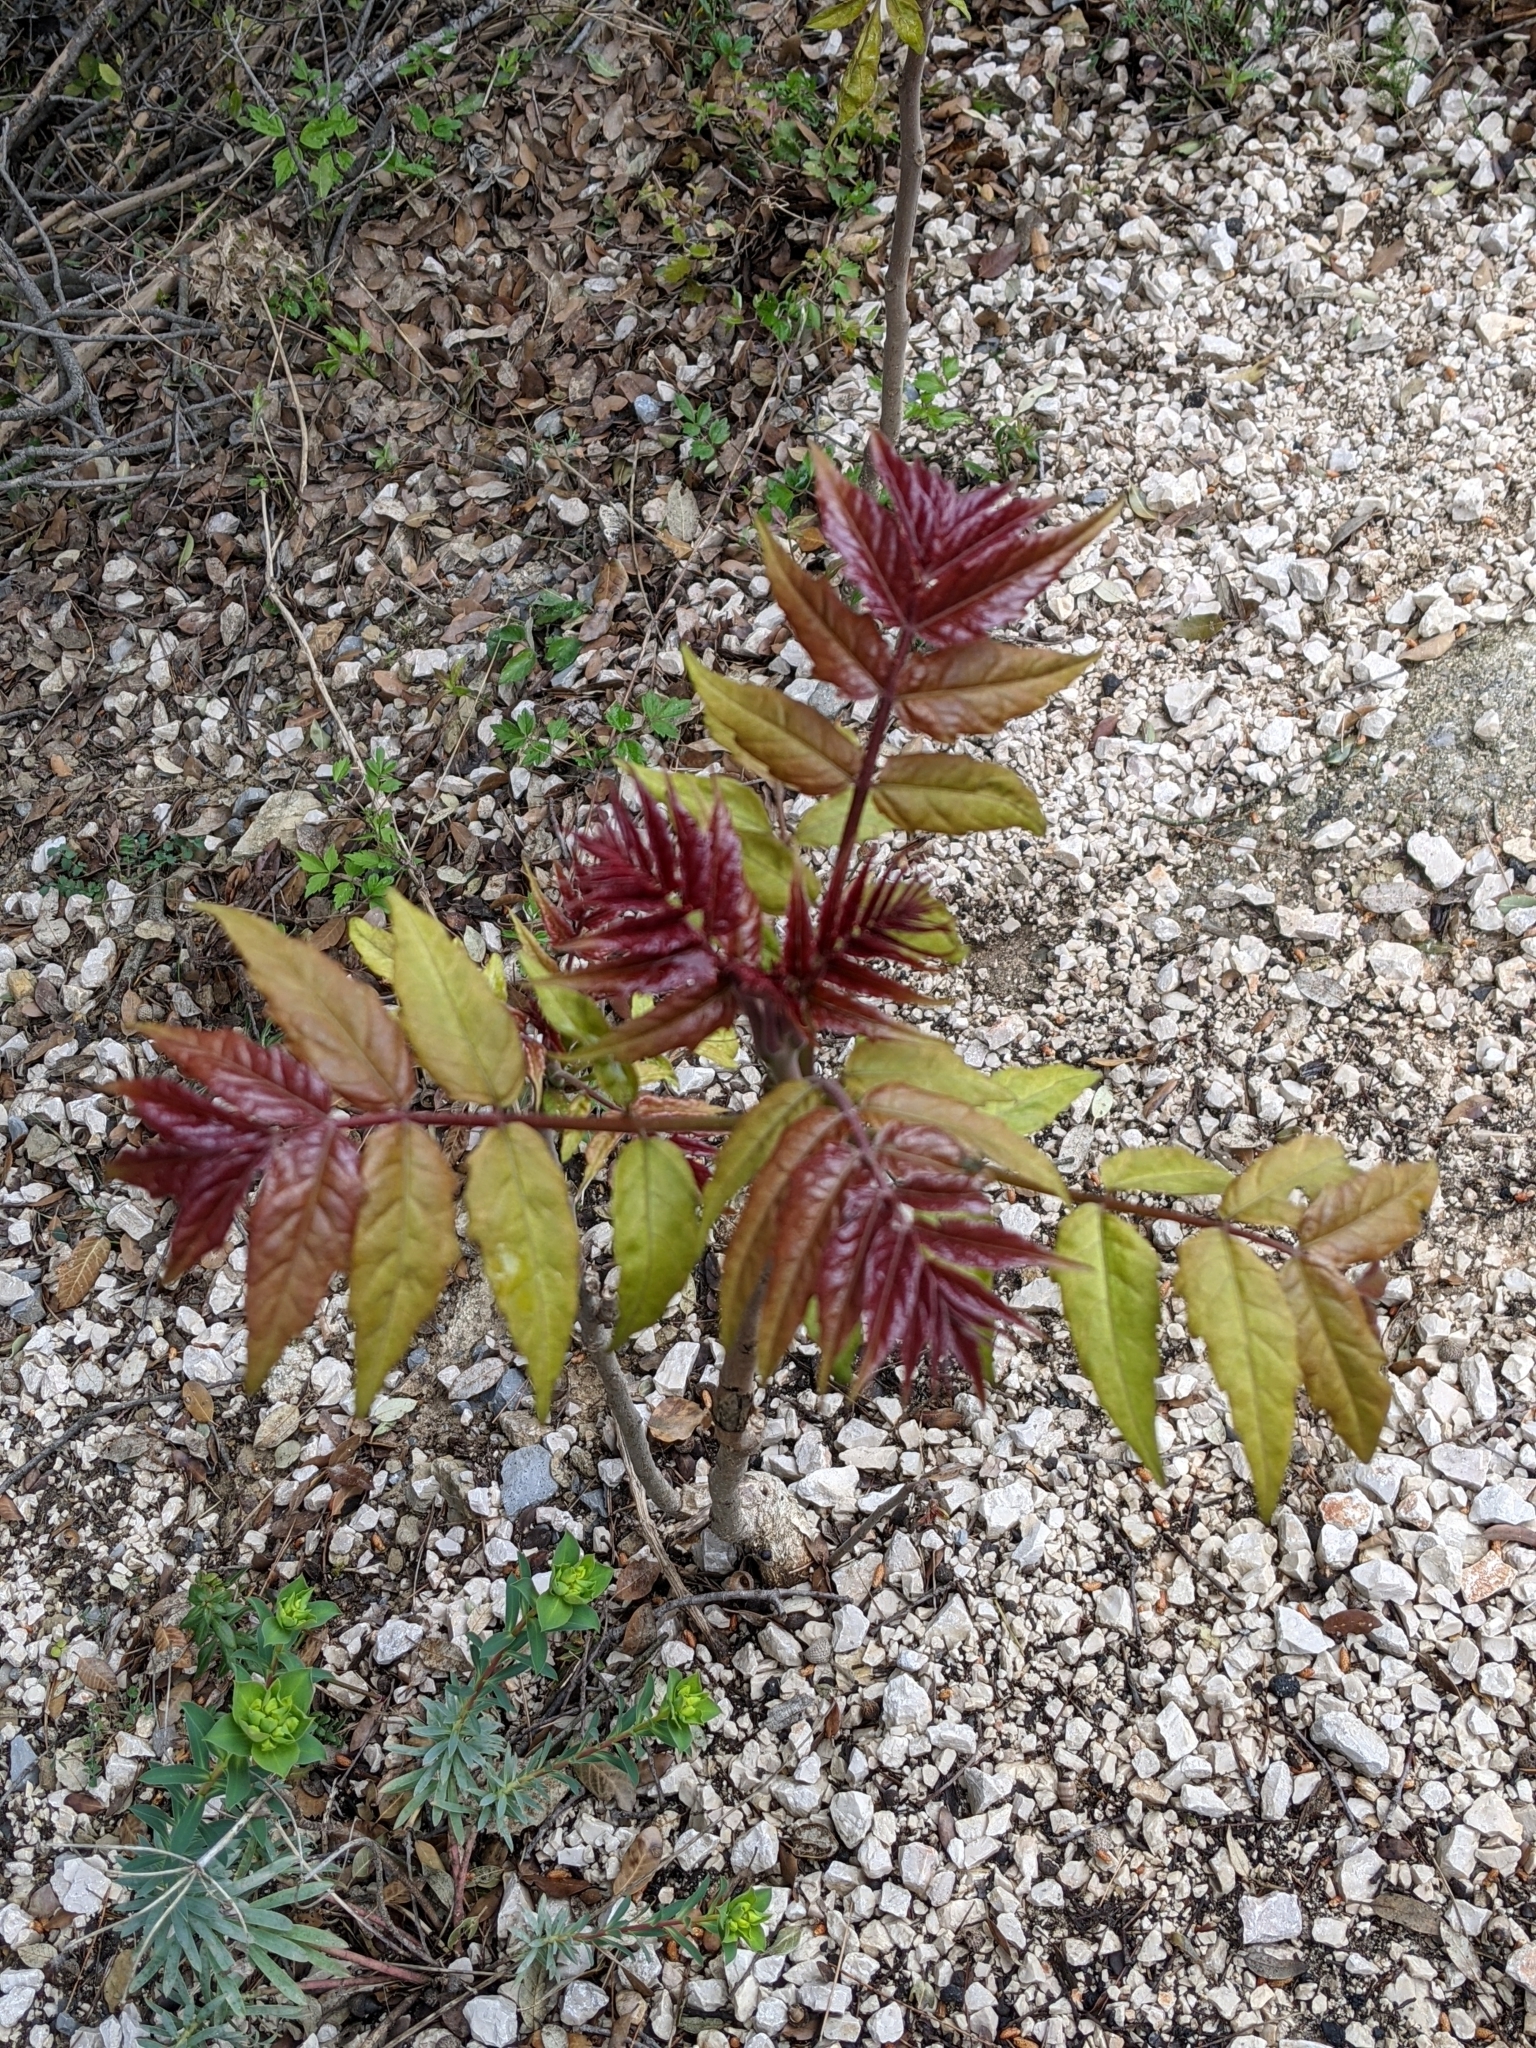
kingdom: Plantae
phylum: Tracheophyta
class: Magnoliopsida
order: Sapindales
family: Simaroubaceae
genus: Ailanthus
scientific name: Ailanthus altissima
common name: Tree-of-heaven
